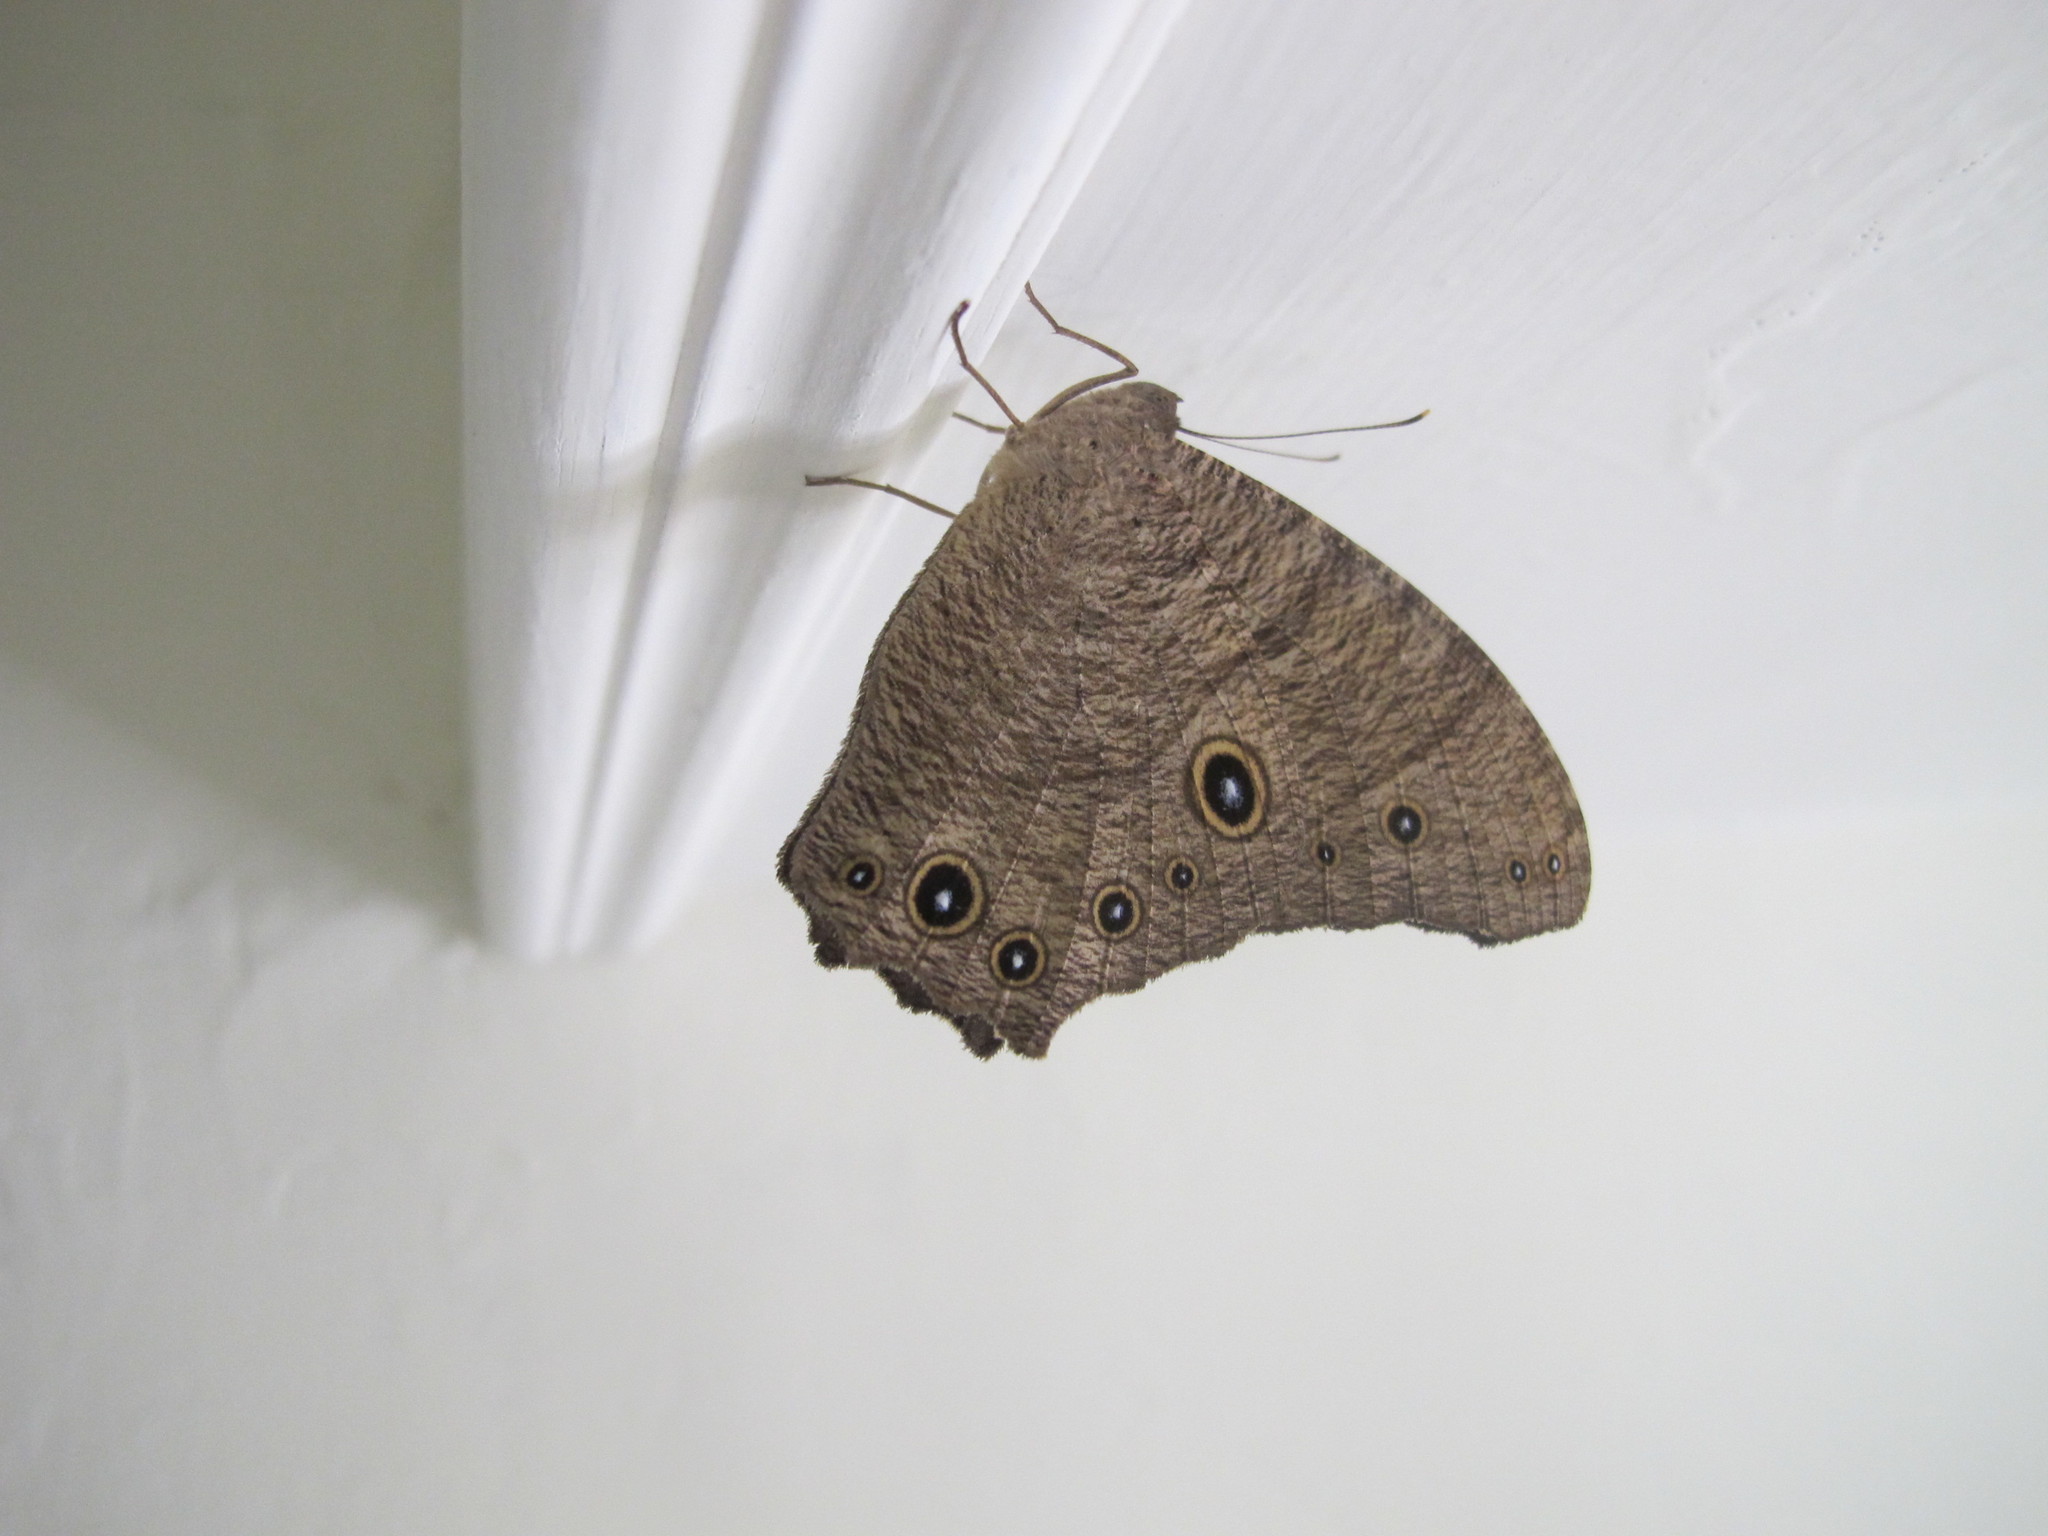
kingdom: Animalia
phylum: Arthropoda
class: Insecta
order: Lepidoptera
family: Nymphalidae
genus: Melanitis
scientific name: Melanitis leda
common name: Twilight brown
